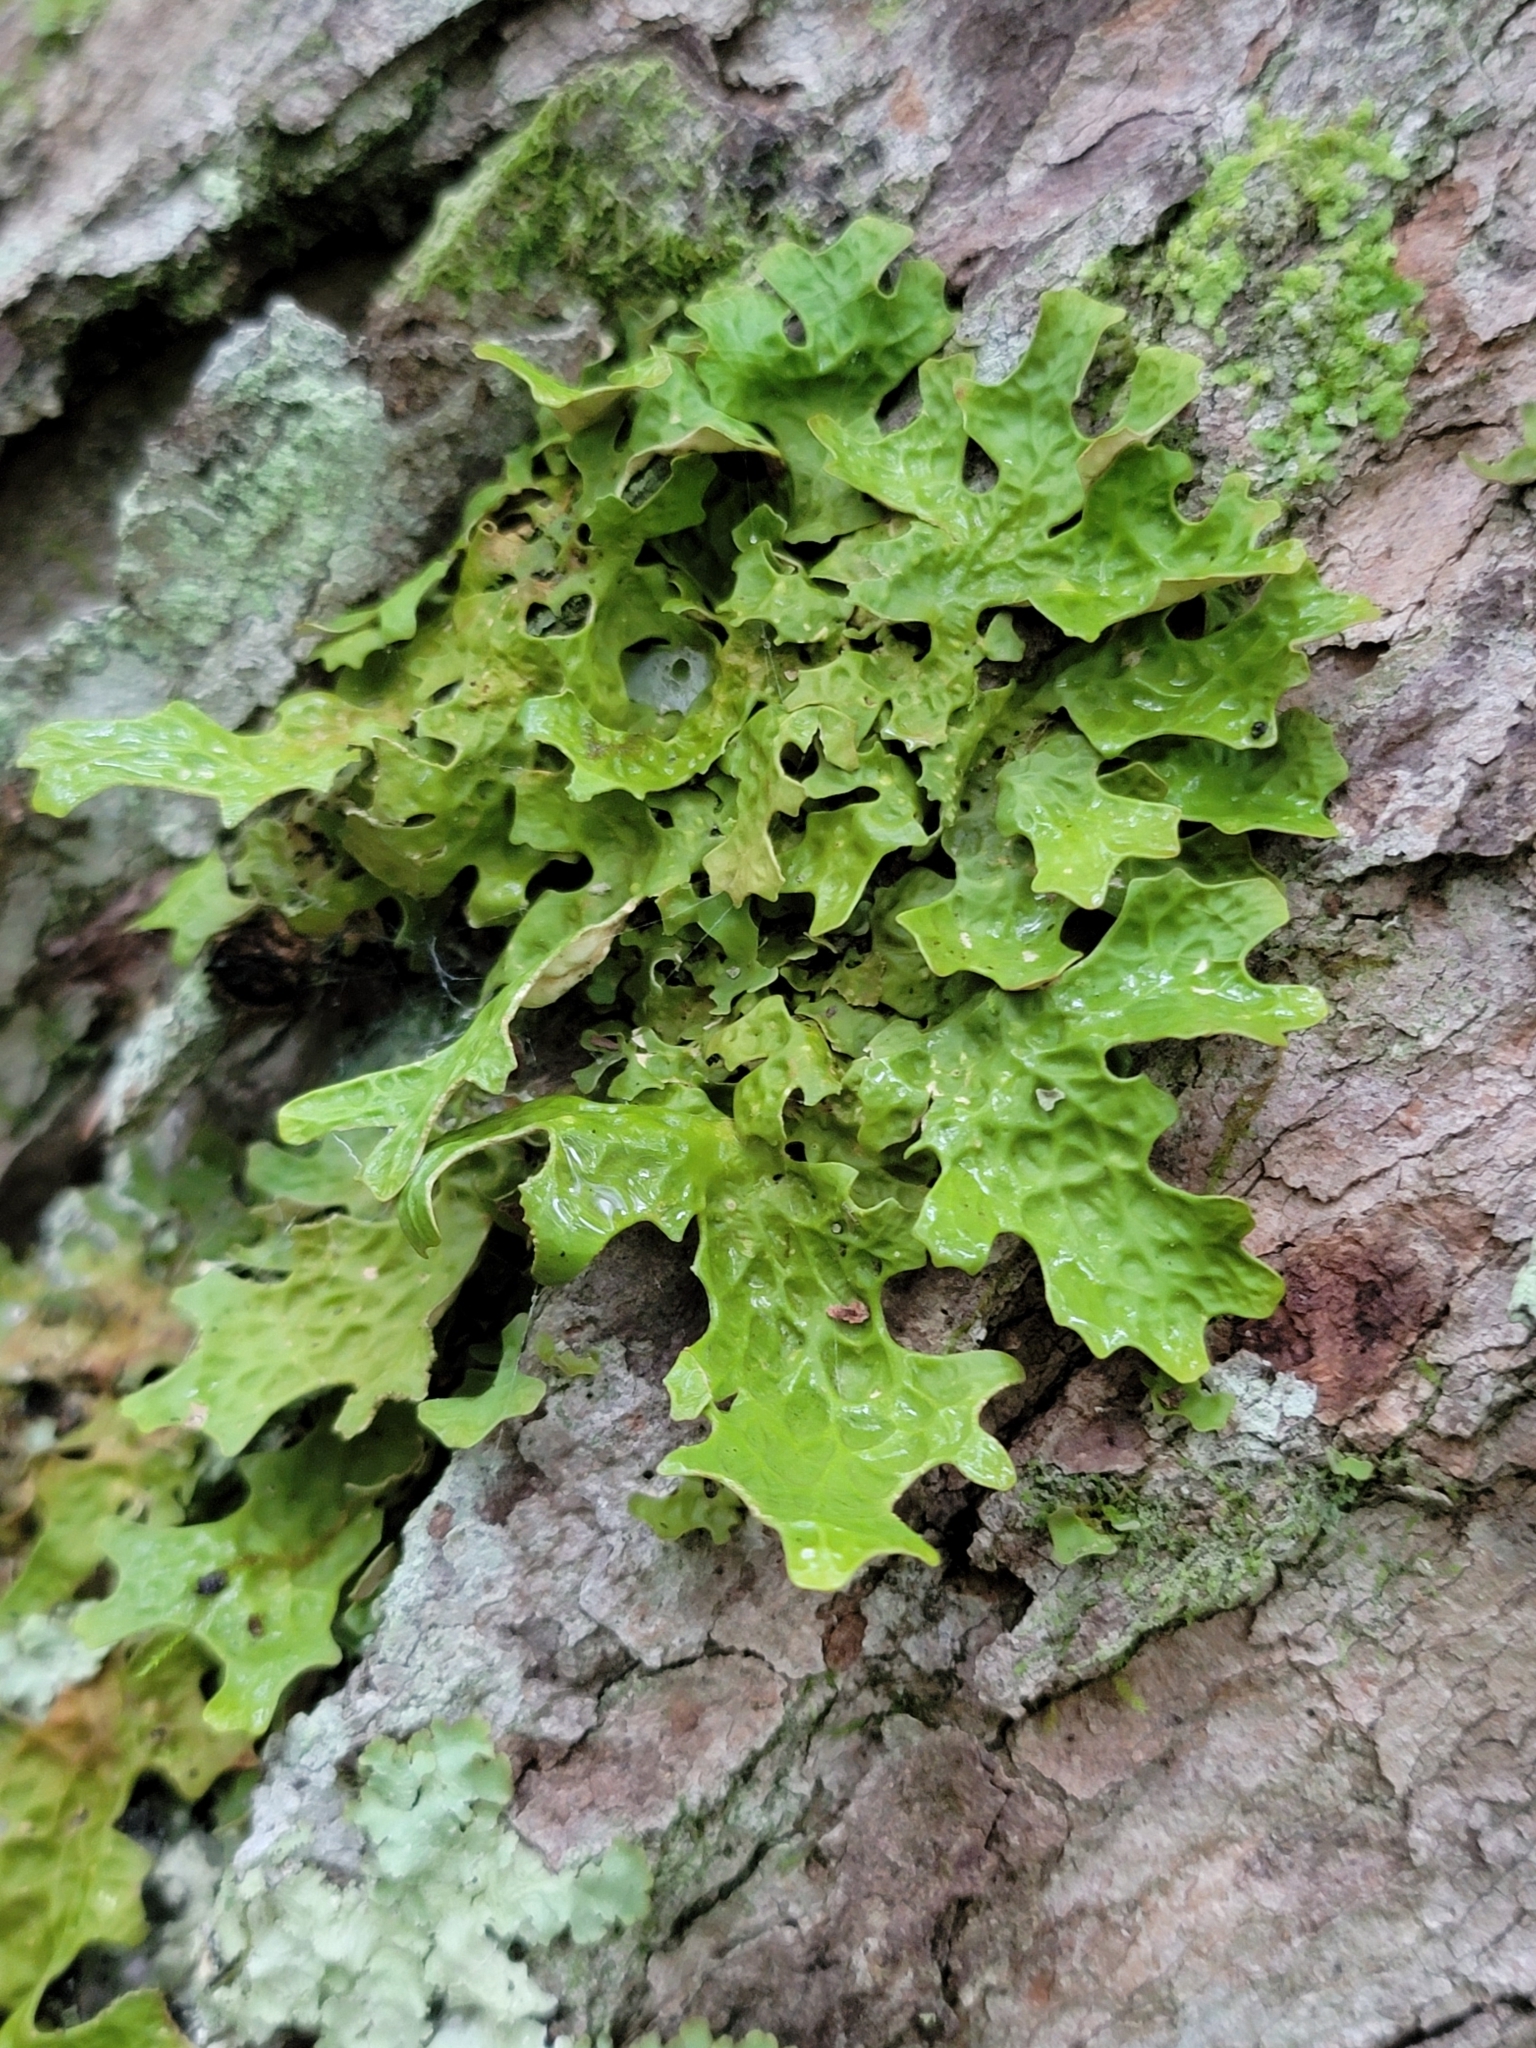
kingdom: Fungi
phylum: Ascomycota
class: Lecanoromycetes
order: Peltigerales
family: Lobariaceae
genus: Lobaria
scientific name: Lobaria pulmonaria
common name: Lungwort
